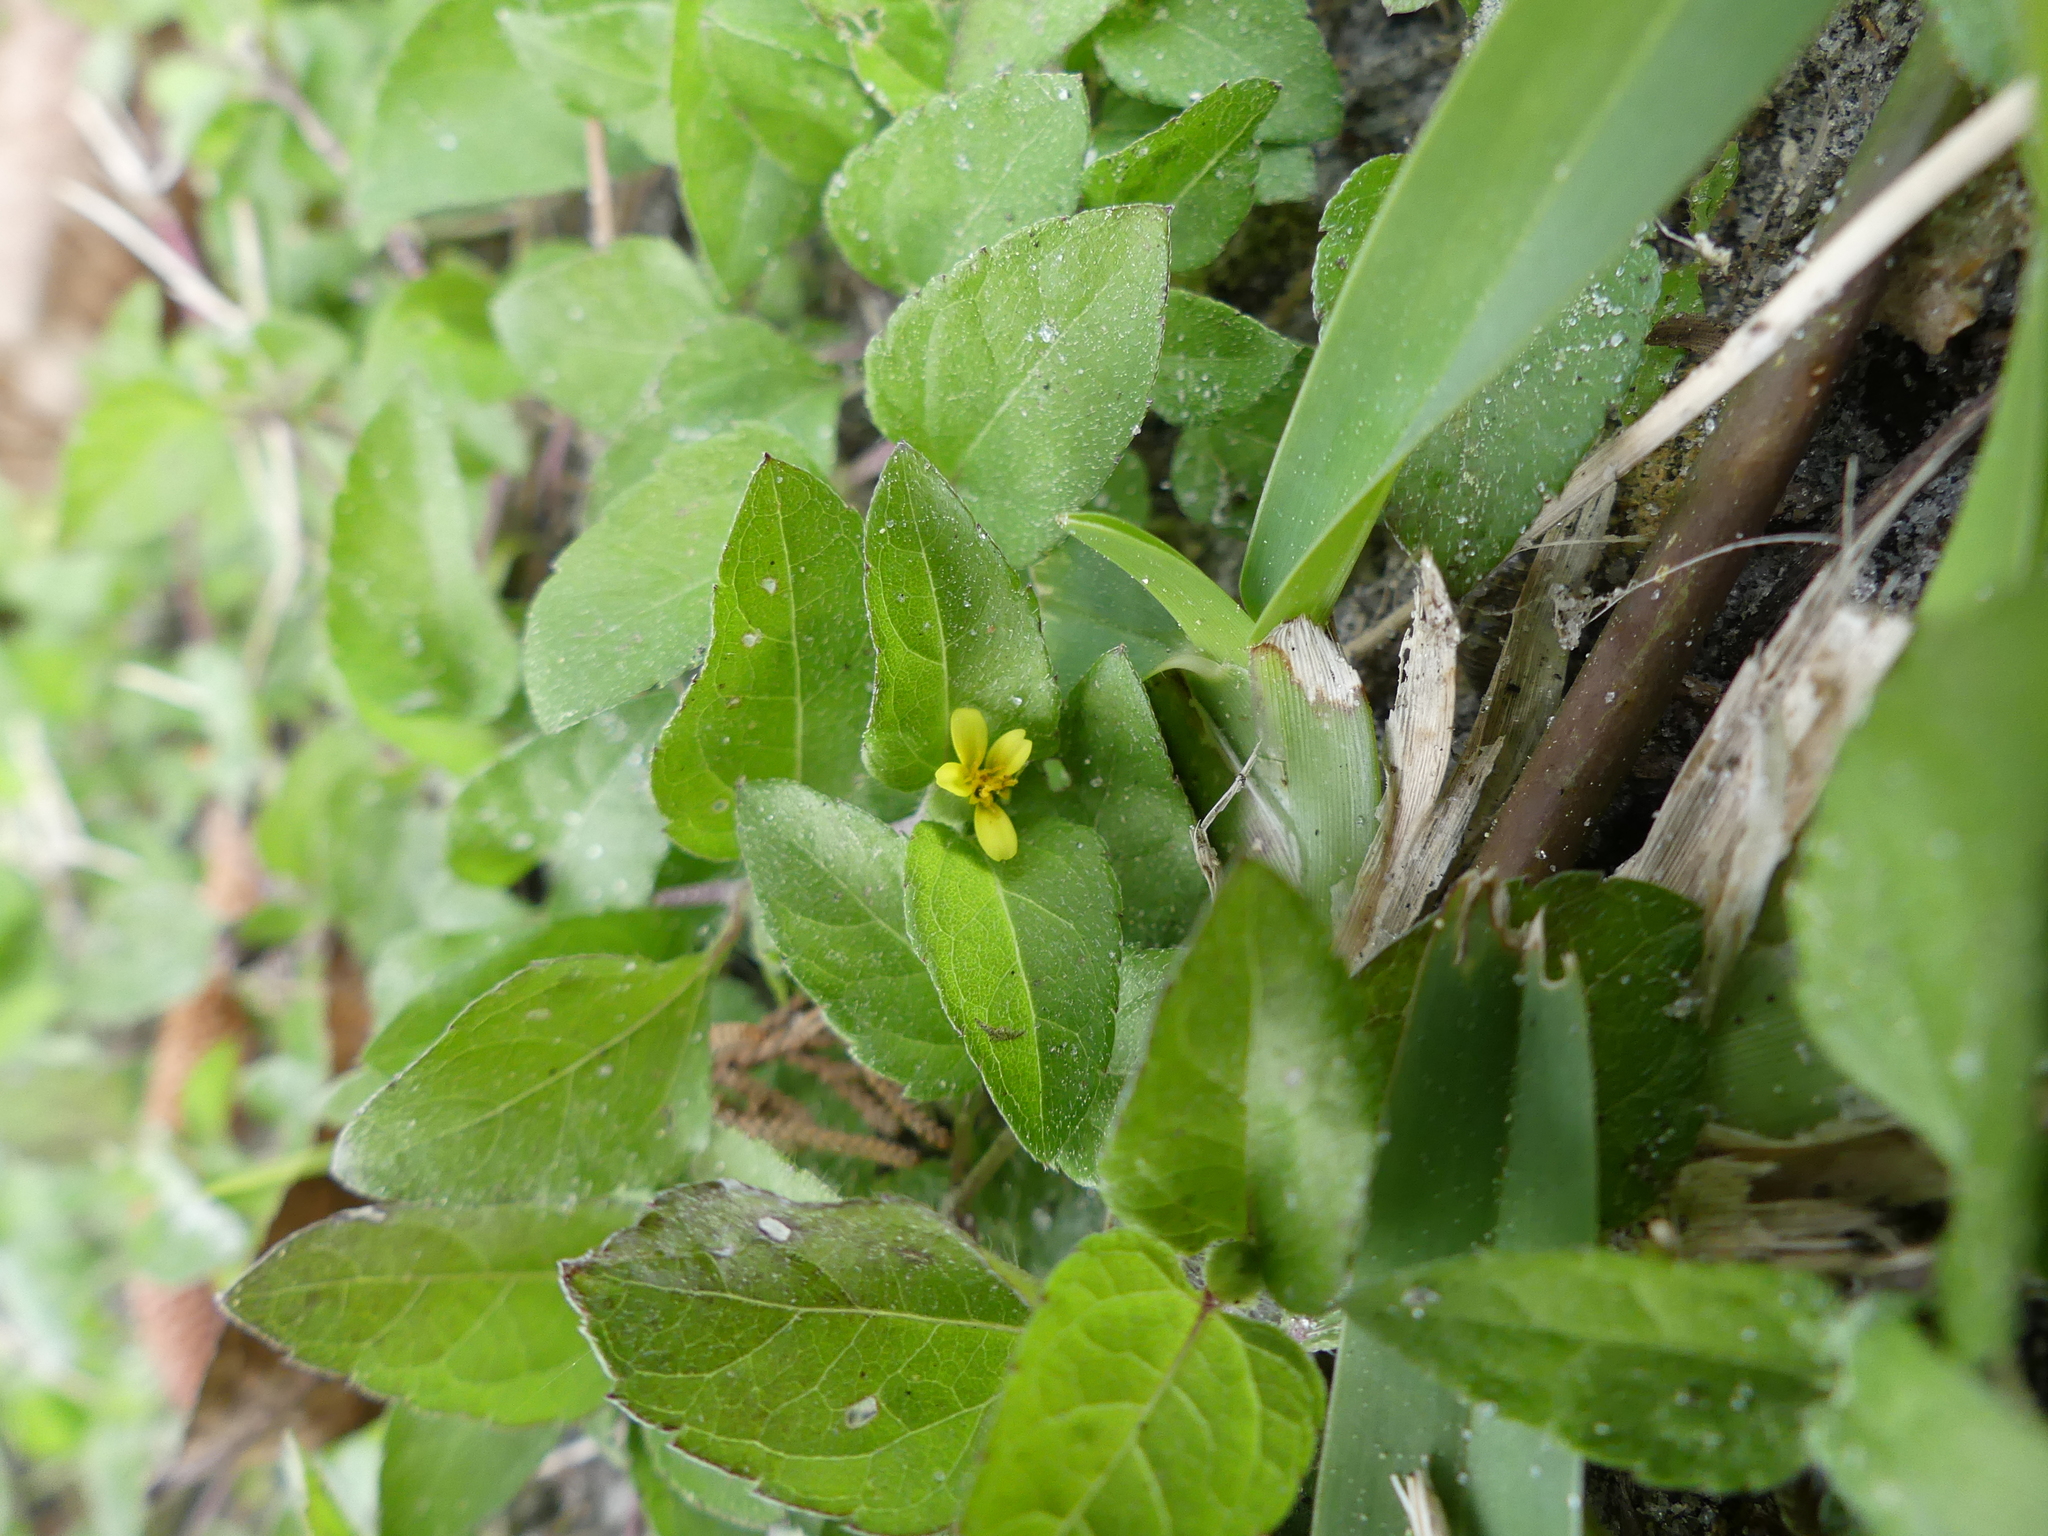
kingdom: Plantae
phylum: Tracheophyta
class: Magnoliopsida
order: Asterales
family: Asteraceae
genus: Calyptocarpus
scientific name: Calyptocarpus vialis
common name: Straggler daisy
